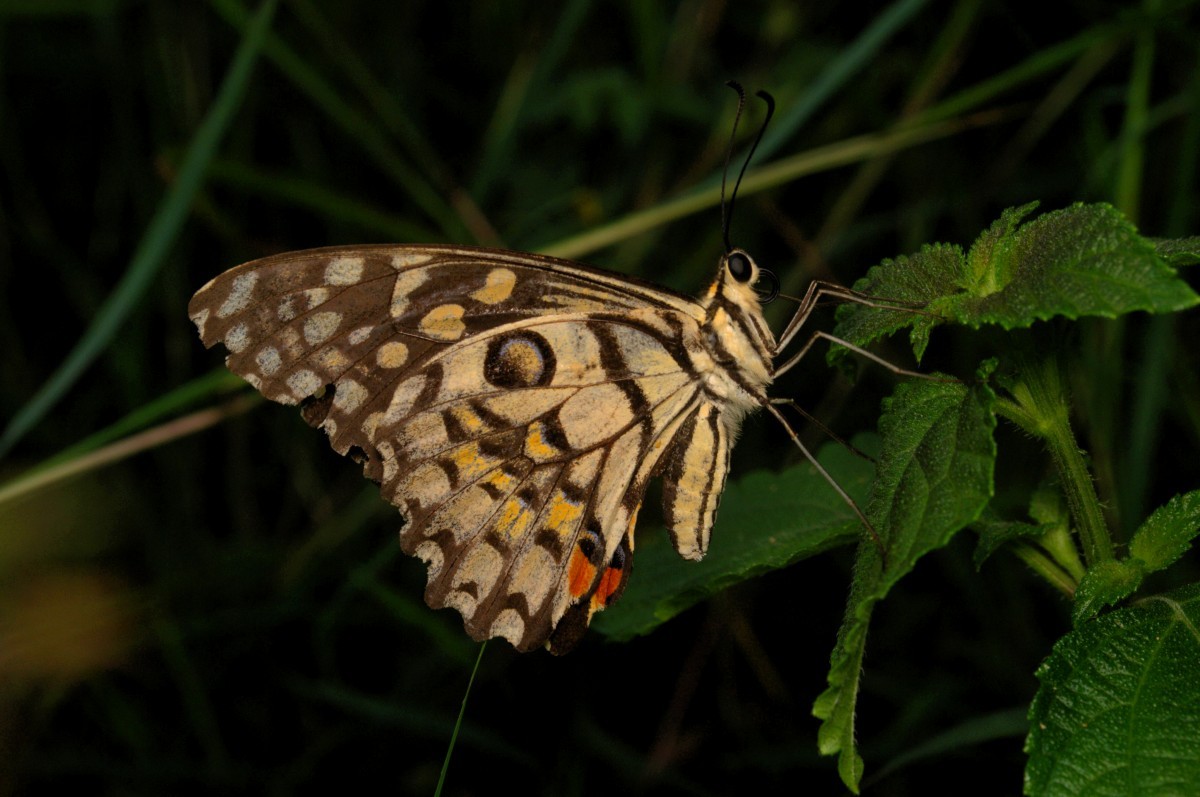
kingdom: Animalia
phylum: Arthropoda
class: Insecta
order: Lepidoptera
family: Papilionidae
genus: Papilio
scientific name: Papilio demoleus
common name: Lime butterfly
